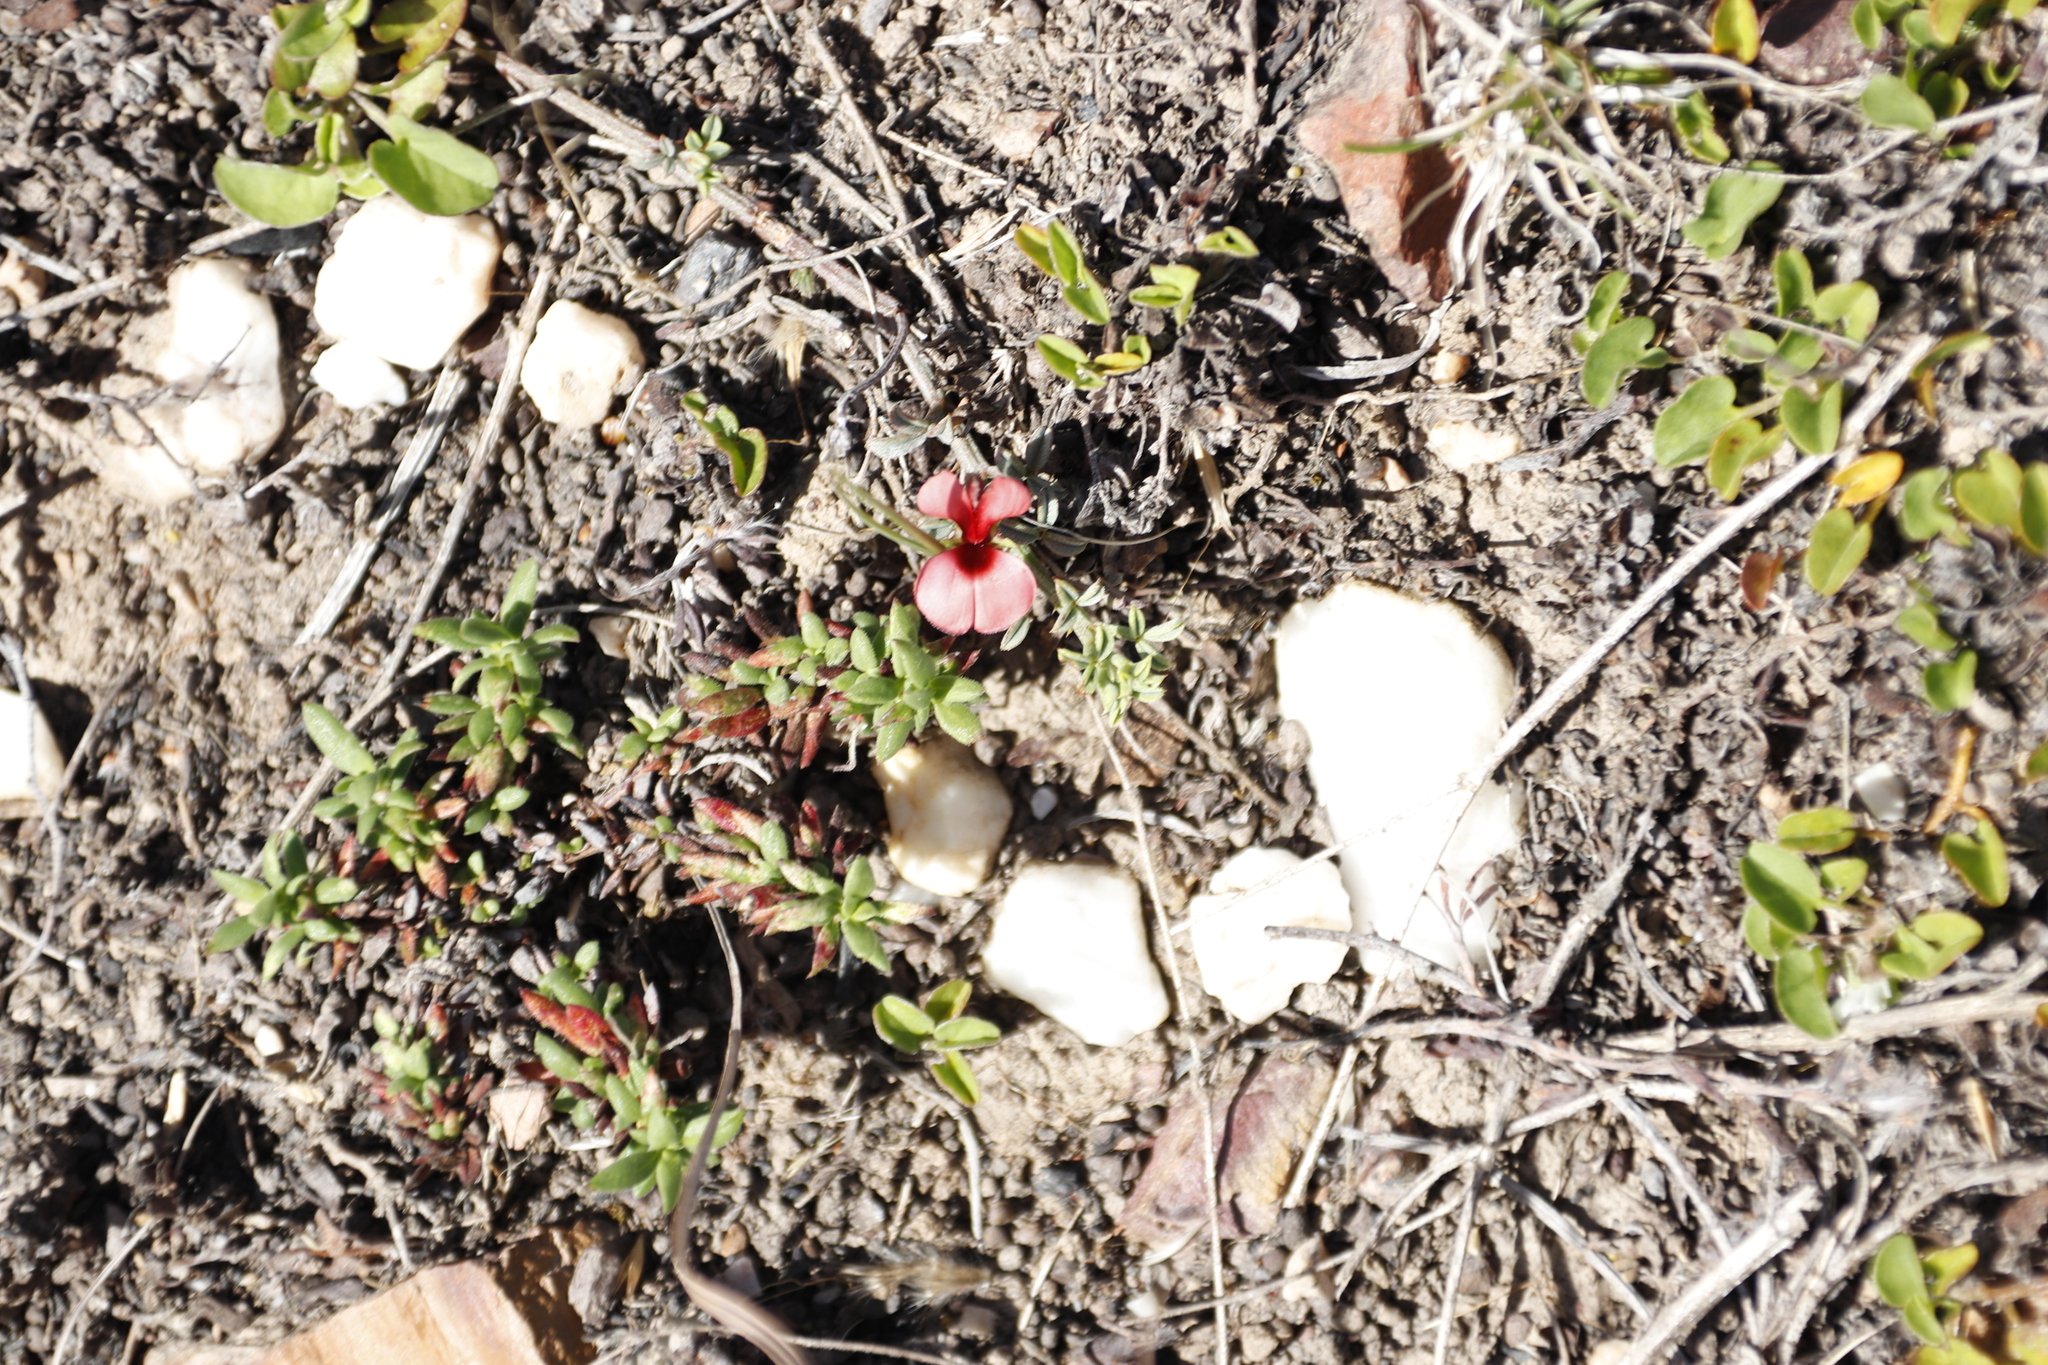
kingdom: Plantae
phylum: Tracheophyta
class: Magnoliopsida
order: Fabales
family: Fabaceae
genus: Indigofera
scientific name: Indigofera heterophylla
